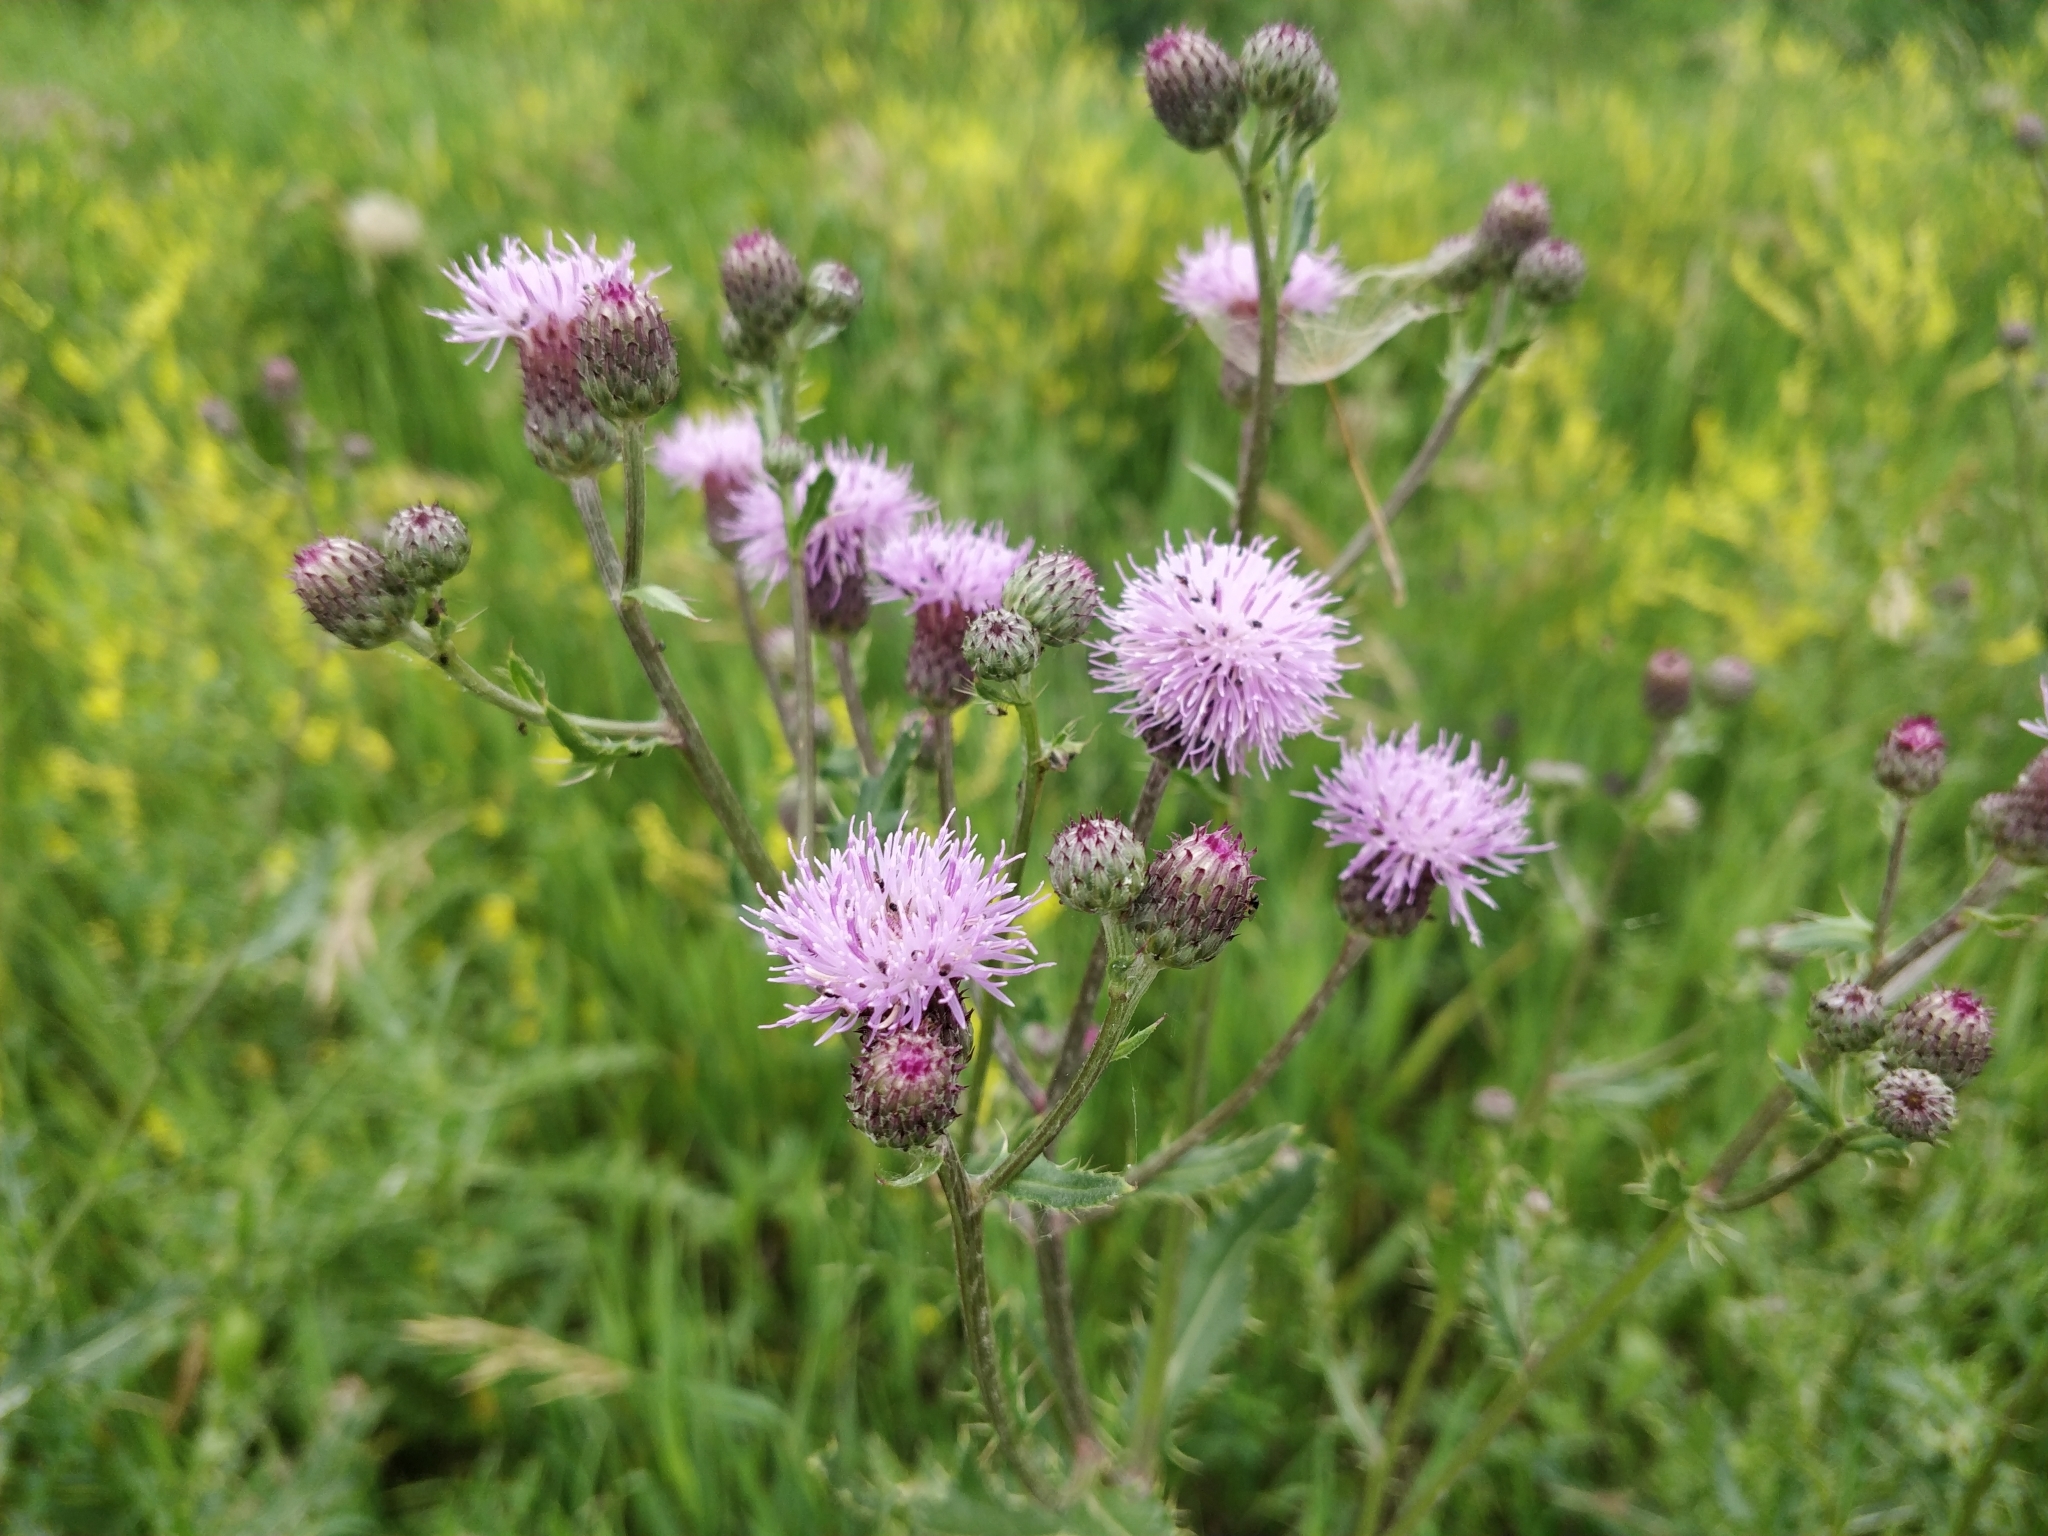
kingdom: Plantae
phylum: Tracheophyta
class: Magnoliopsida
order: Asterales
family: Asteraceae
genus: Cirsium
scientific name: Cirsium arvense
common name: Creeping thistle
